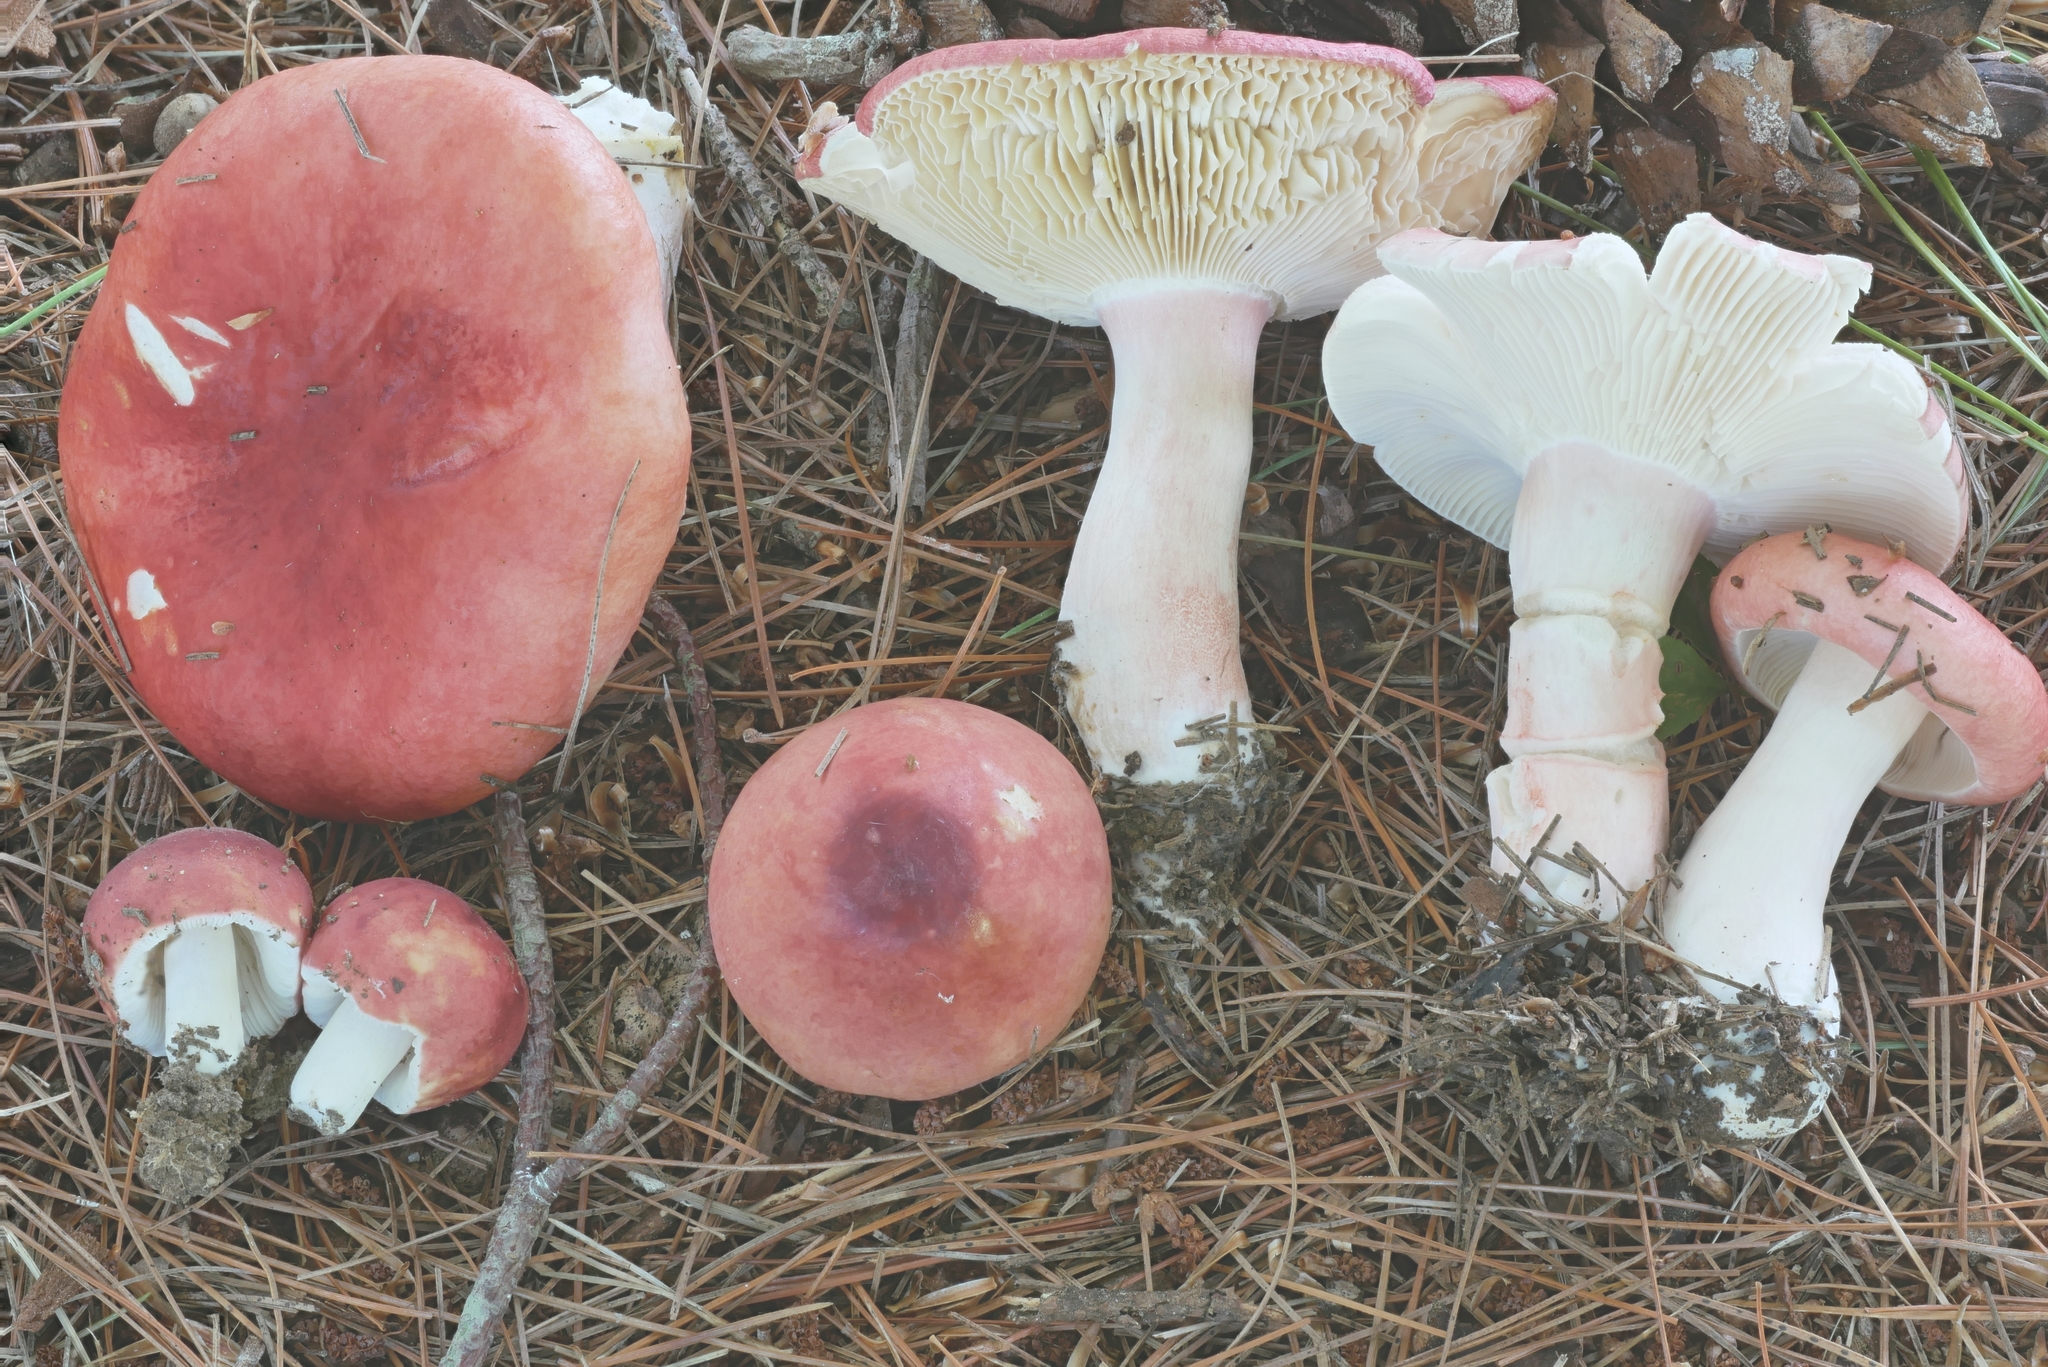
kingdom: Fungi
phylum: Basidiomycota
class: Agaricomycetes
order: Russulales
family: Russulaceae
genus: Russula
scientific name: Russula rhodocephala
